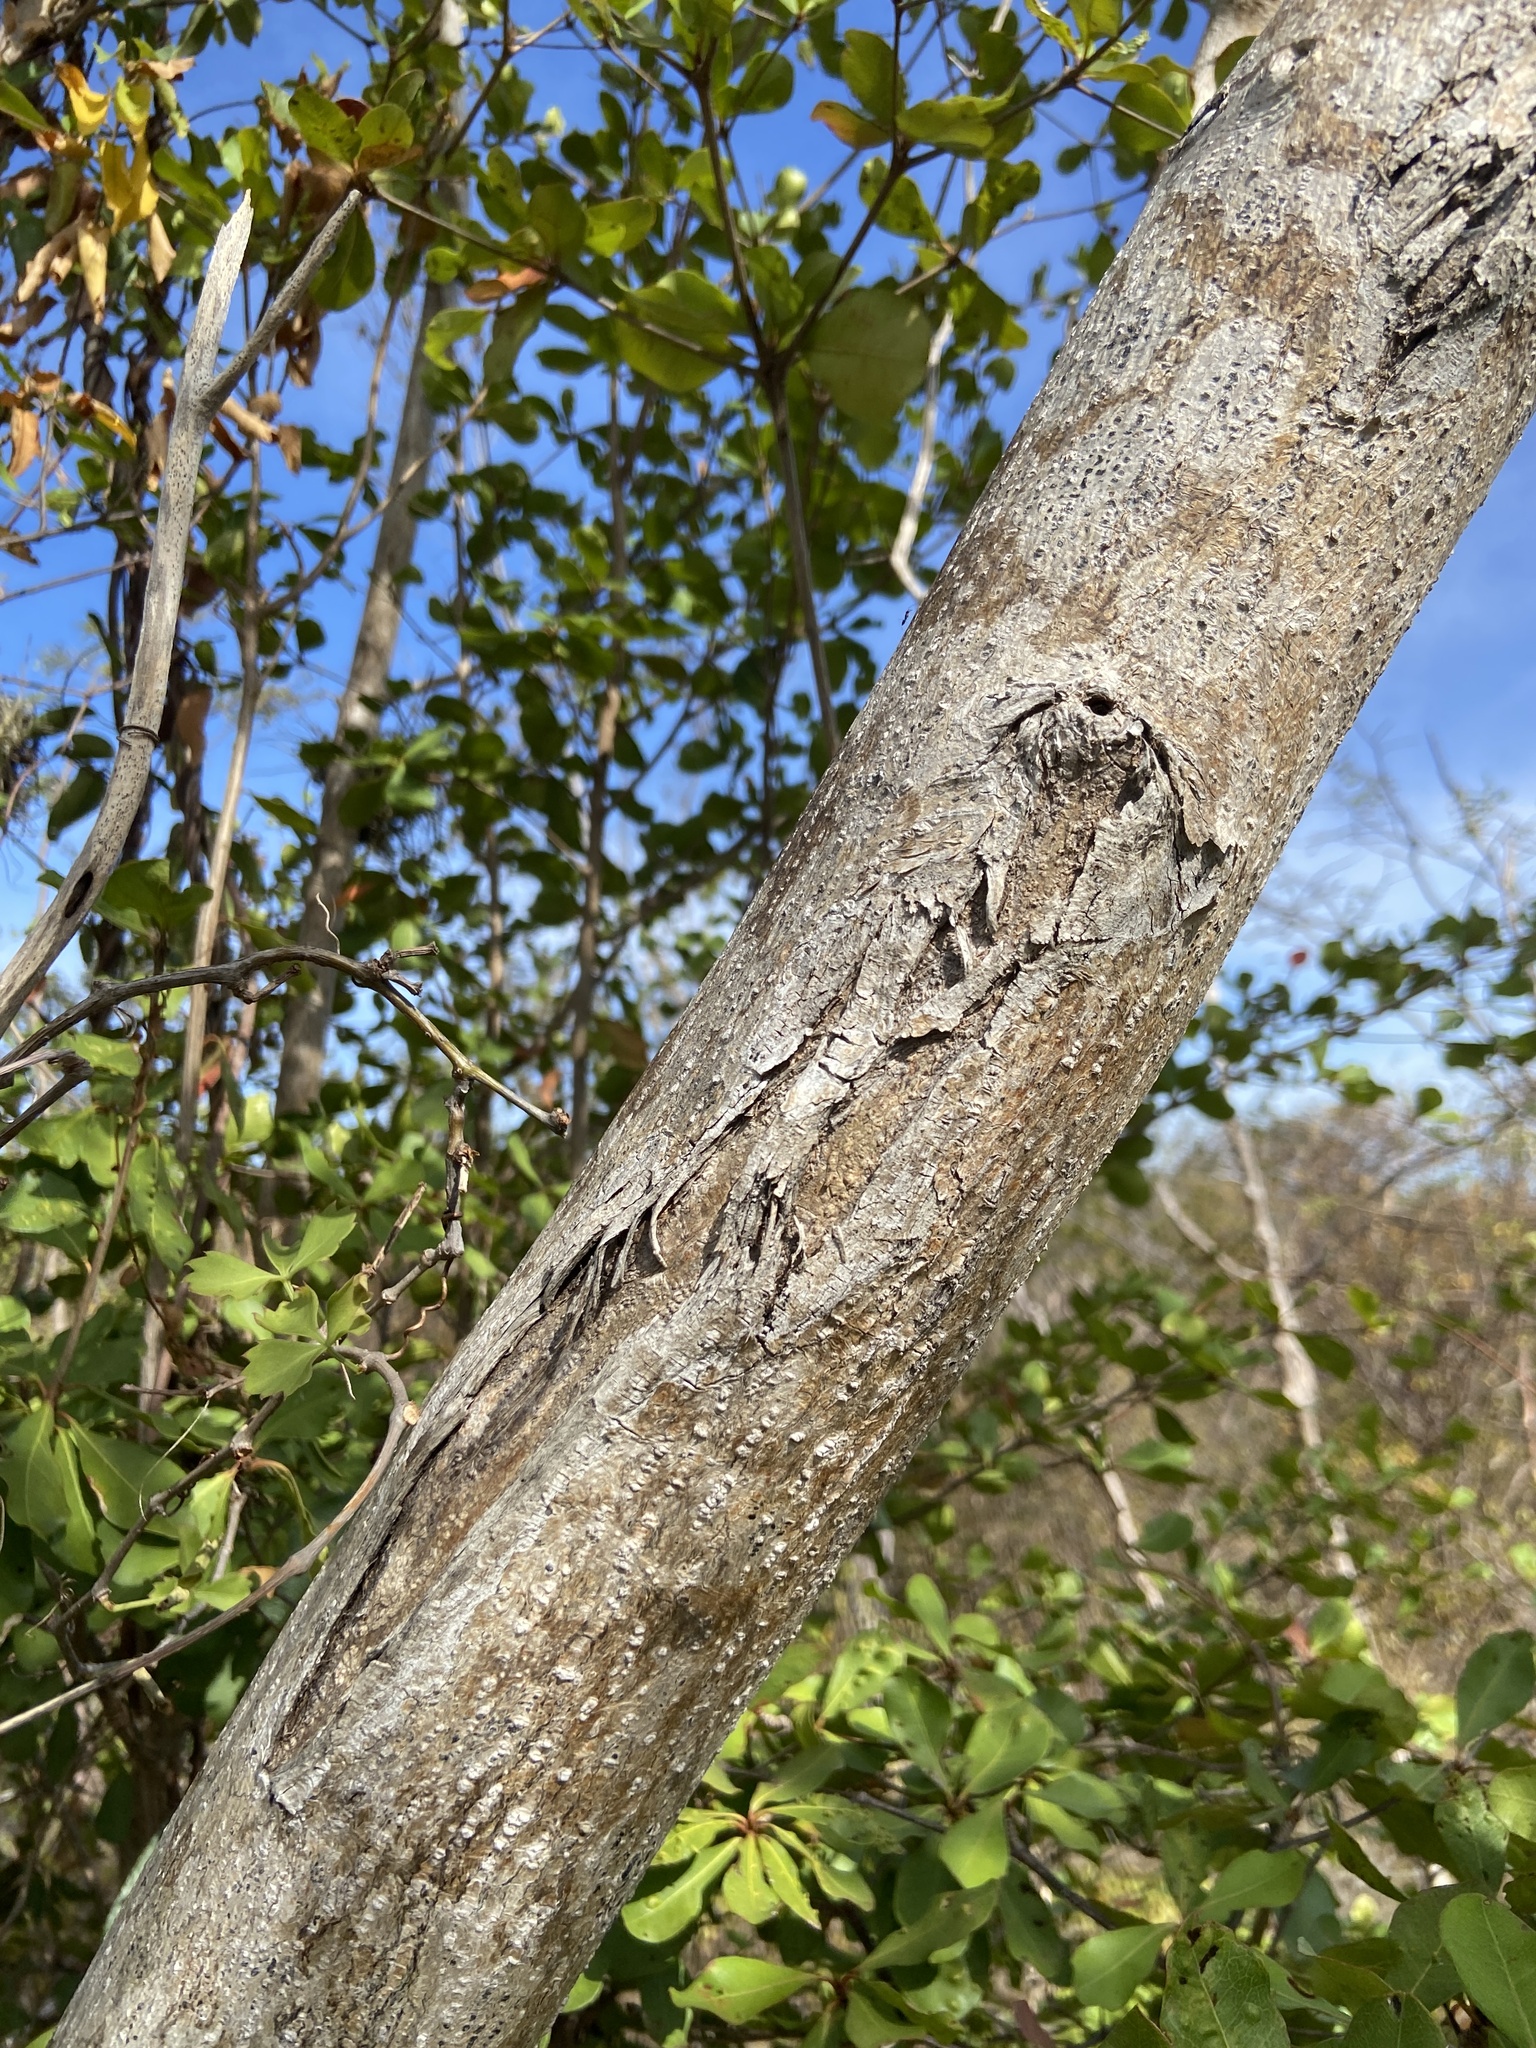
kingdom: Plantae
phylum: Tracheophyta
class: Magnoliopsida
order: Myrtales
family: Combretaceae
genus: Terminalia
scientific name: Terminalia buceras
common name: Black-olive
